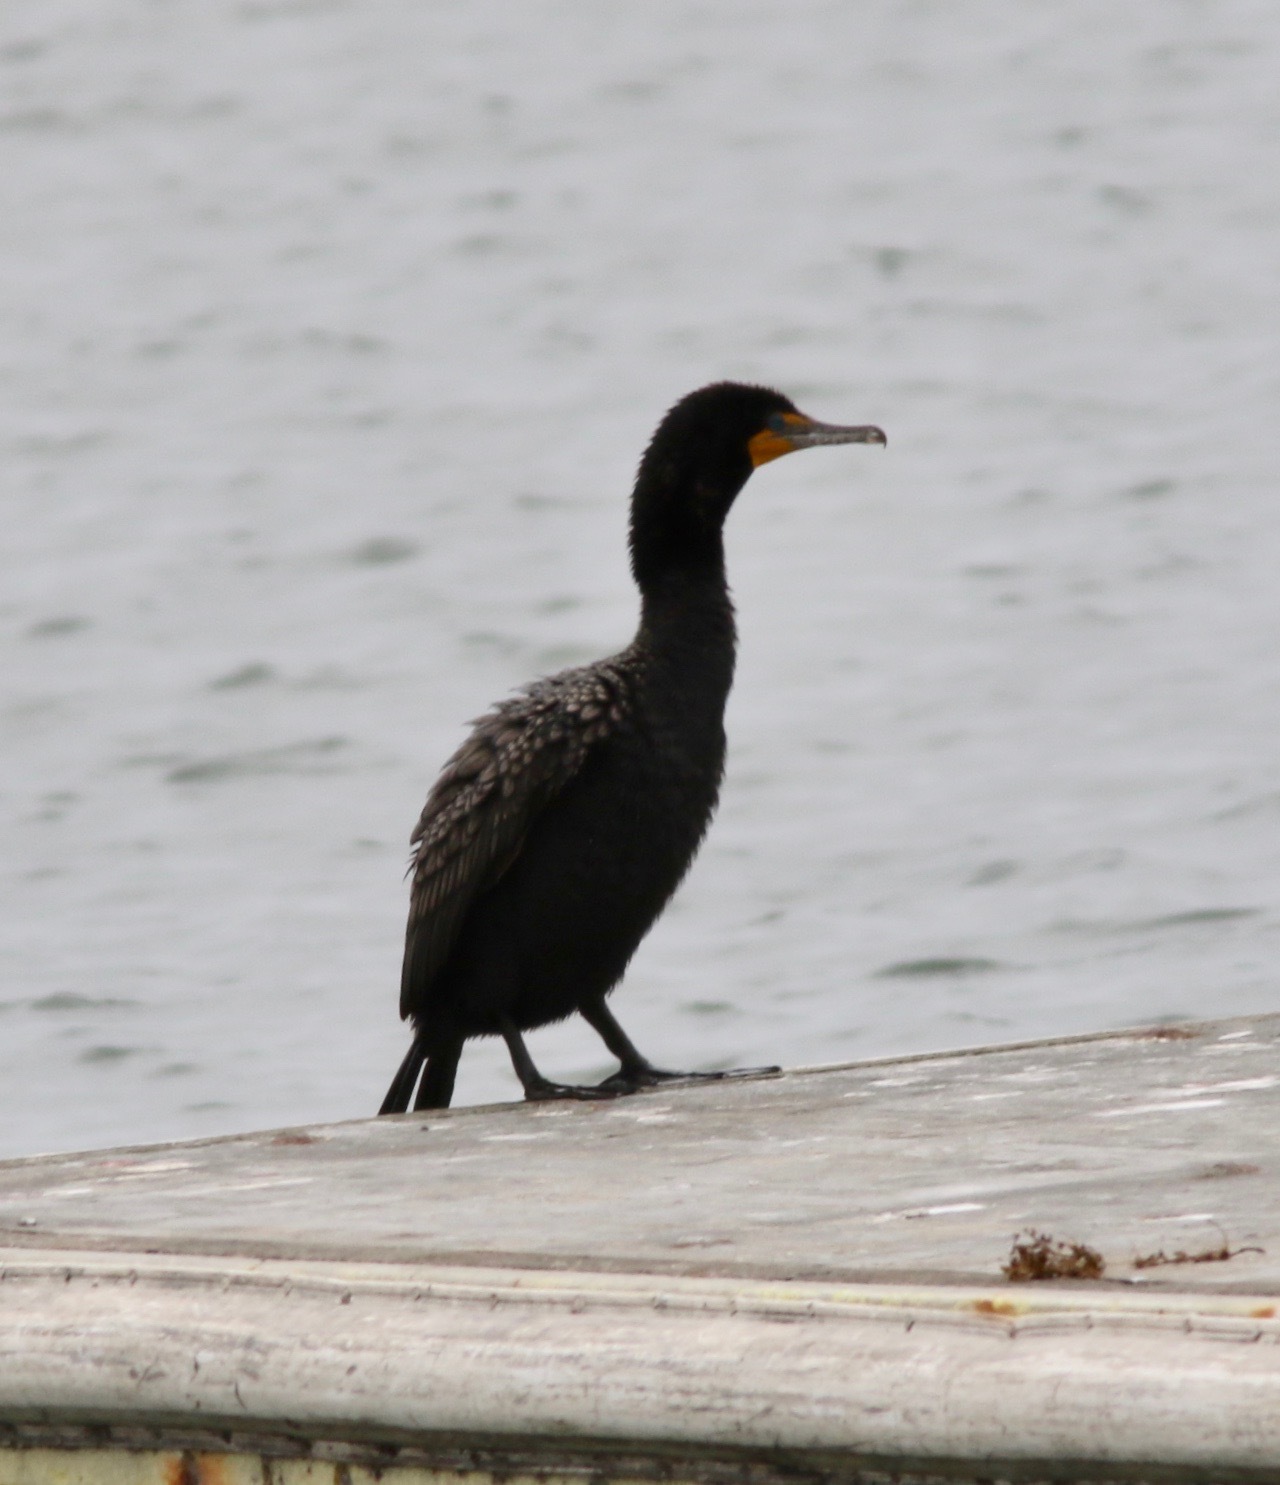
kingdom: Animalia
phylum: Chordata
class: Aves
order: Suliformes
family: Phalacrocoracidae
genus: Phalacrocorax
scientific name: Phalacrocorax auritus
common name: Double-crested cormorant
